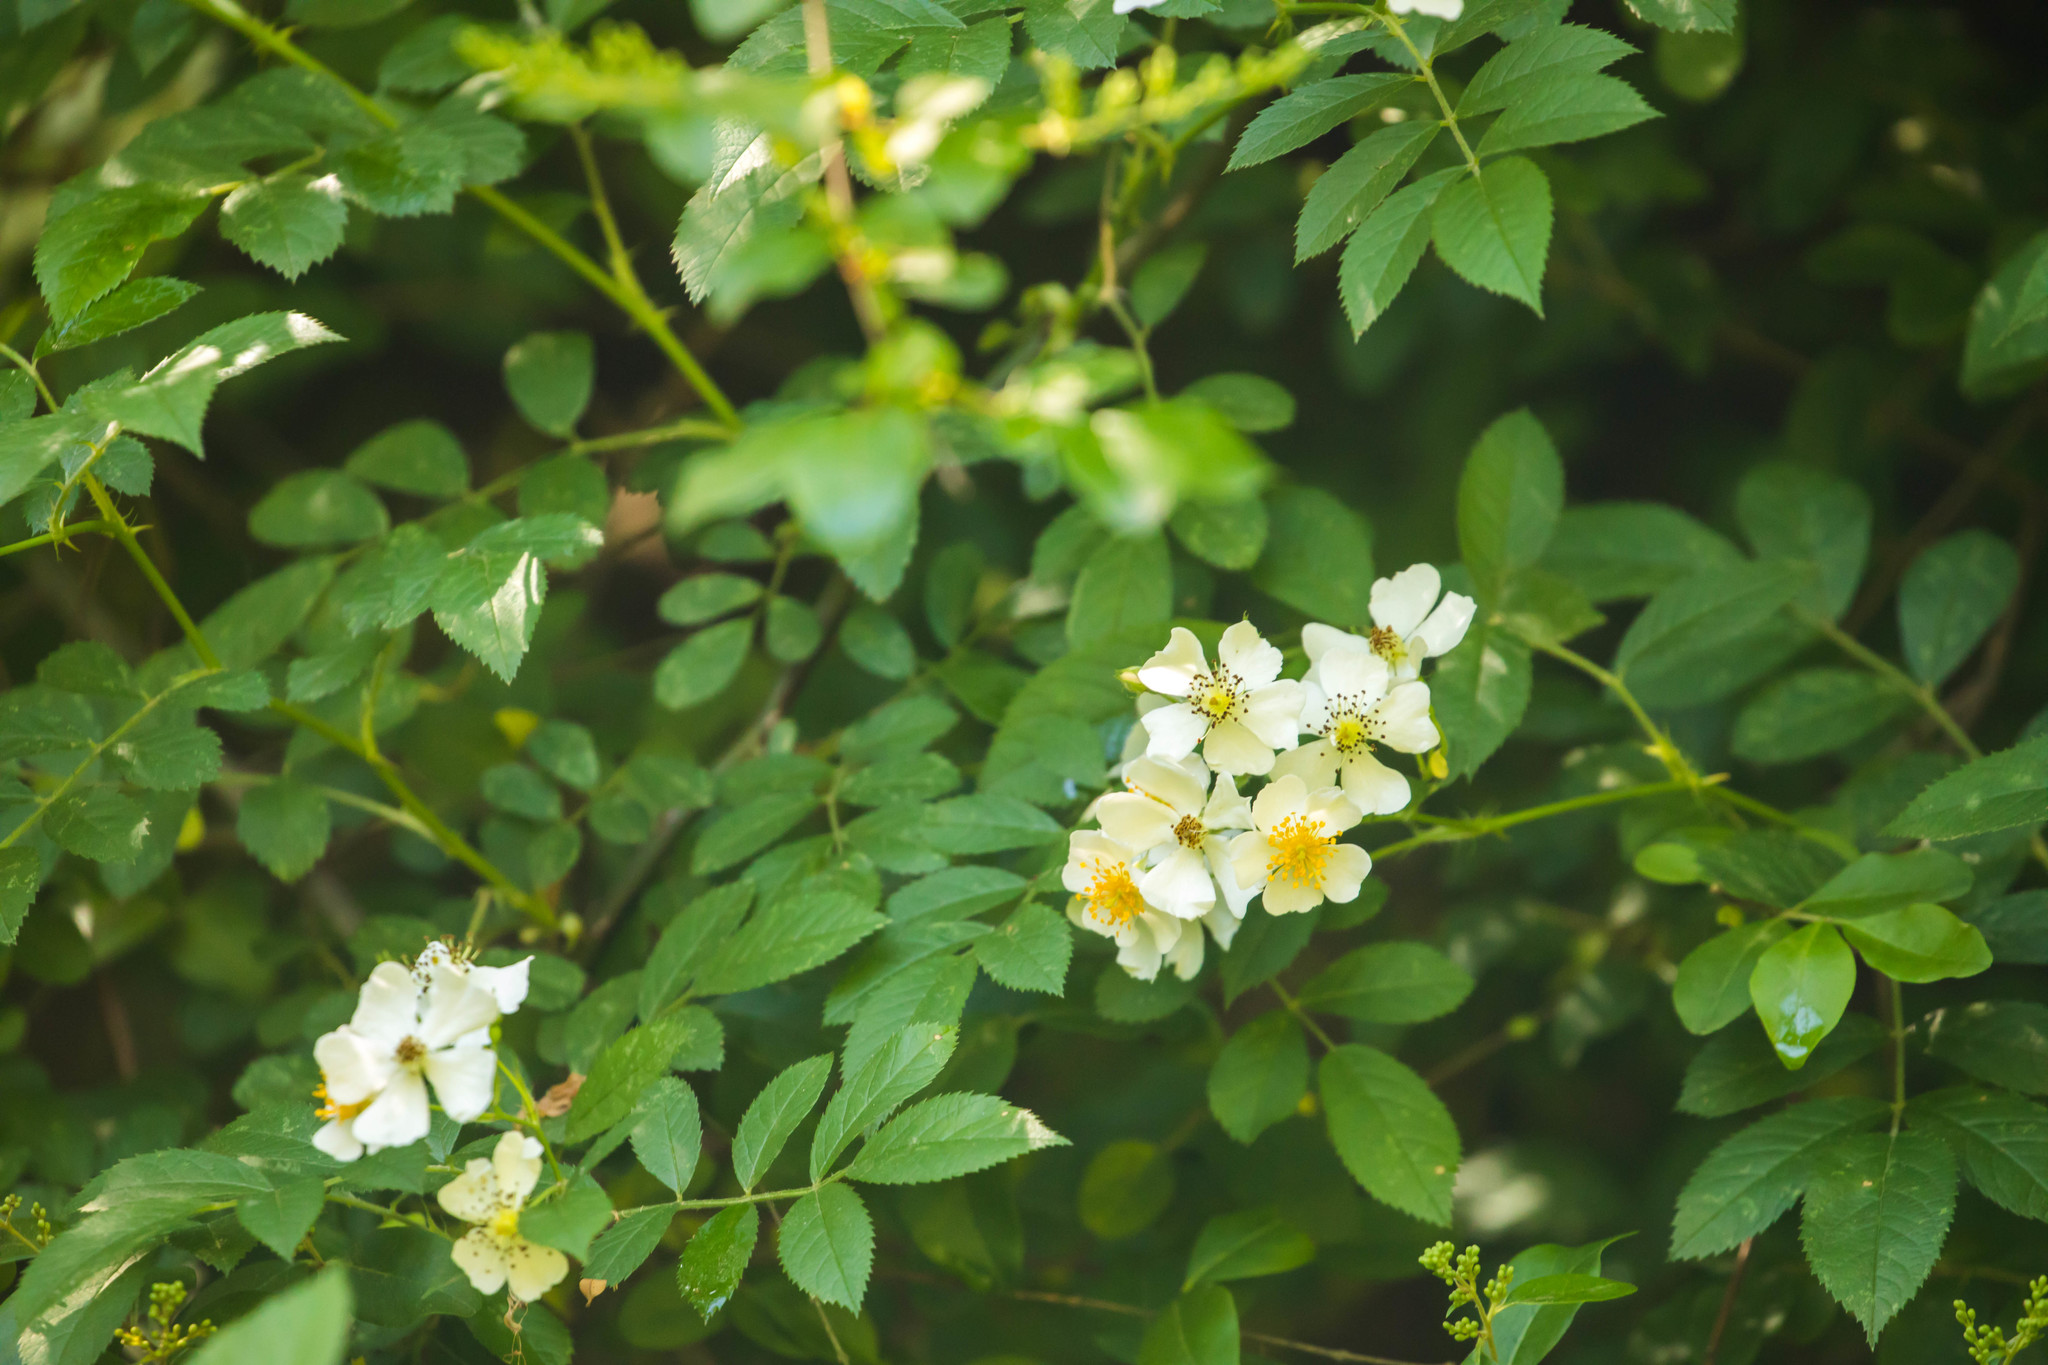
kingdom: Plantae
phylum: Tracheophyta
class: Magnoliopsida
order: Rosales
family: Rosaceae
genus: Rosa
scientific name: Rosa multiflora
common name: Multiflora rose
